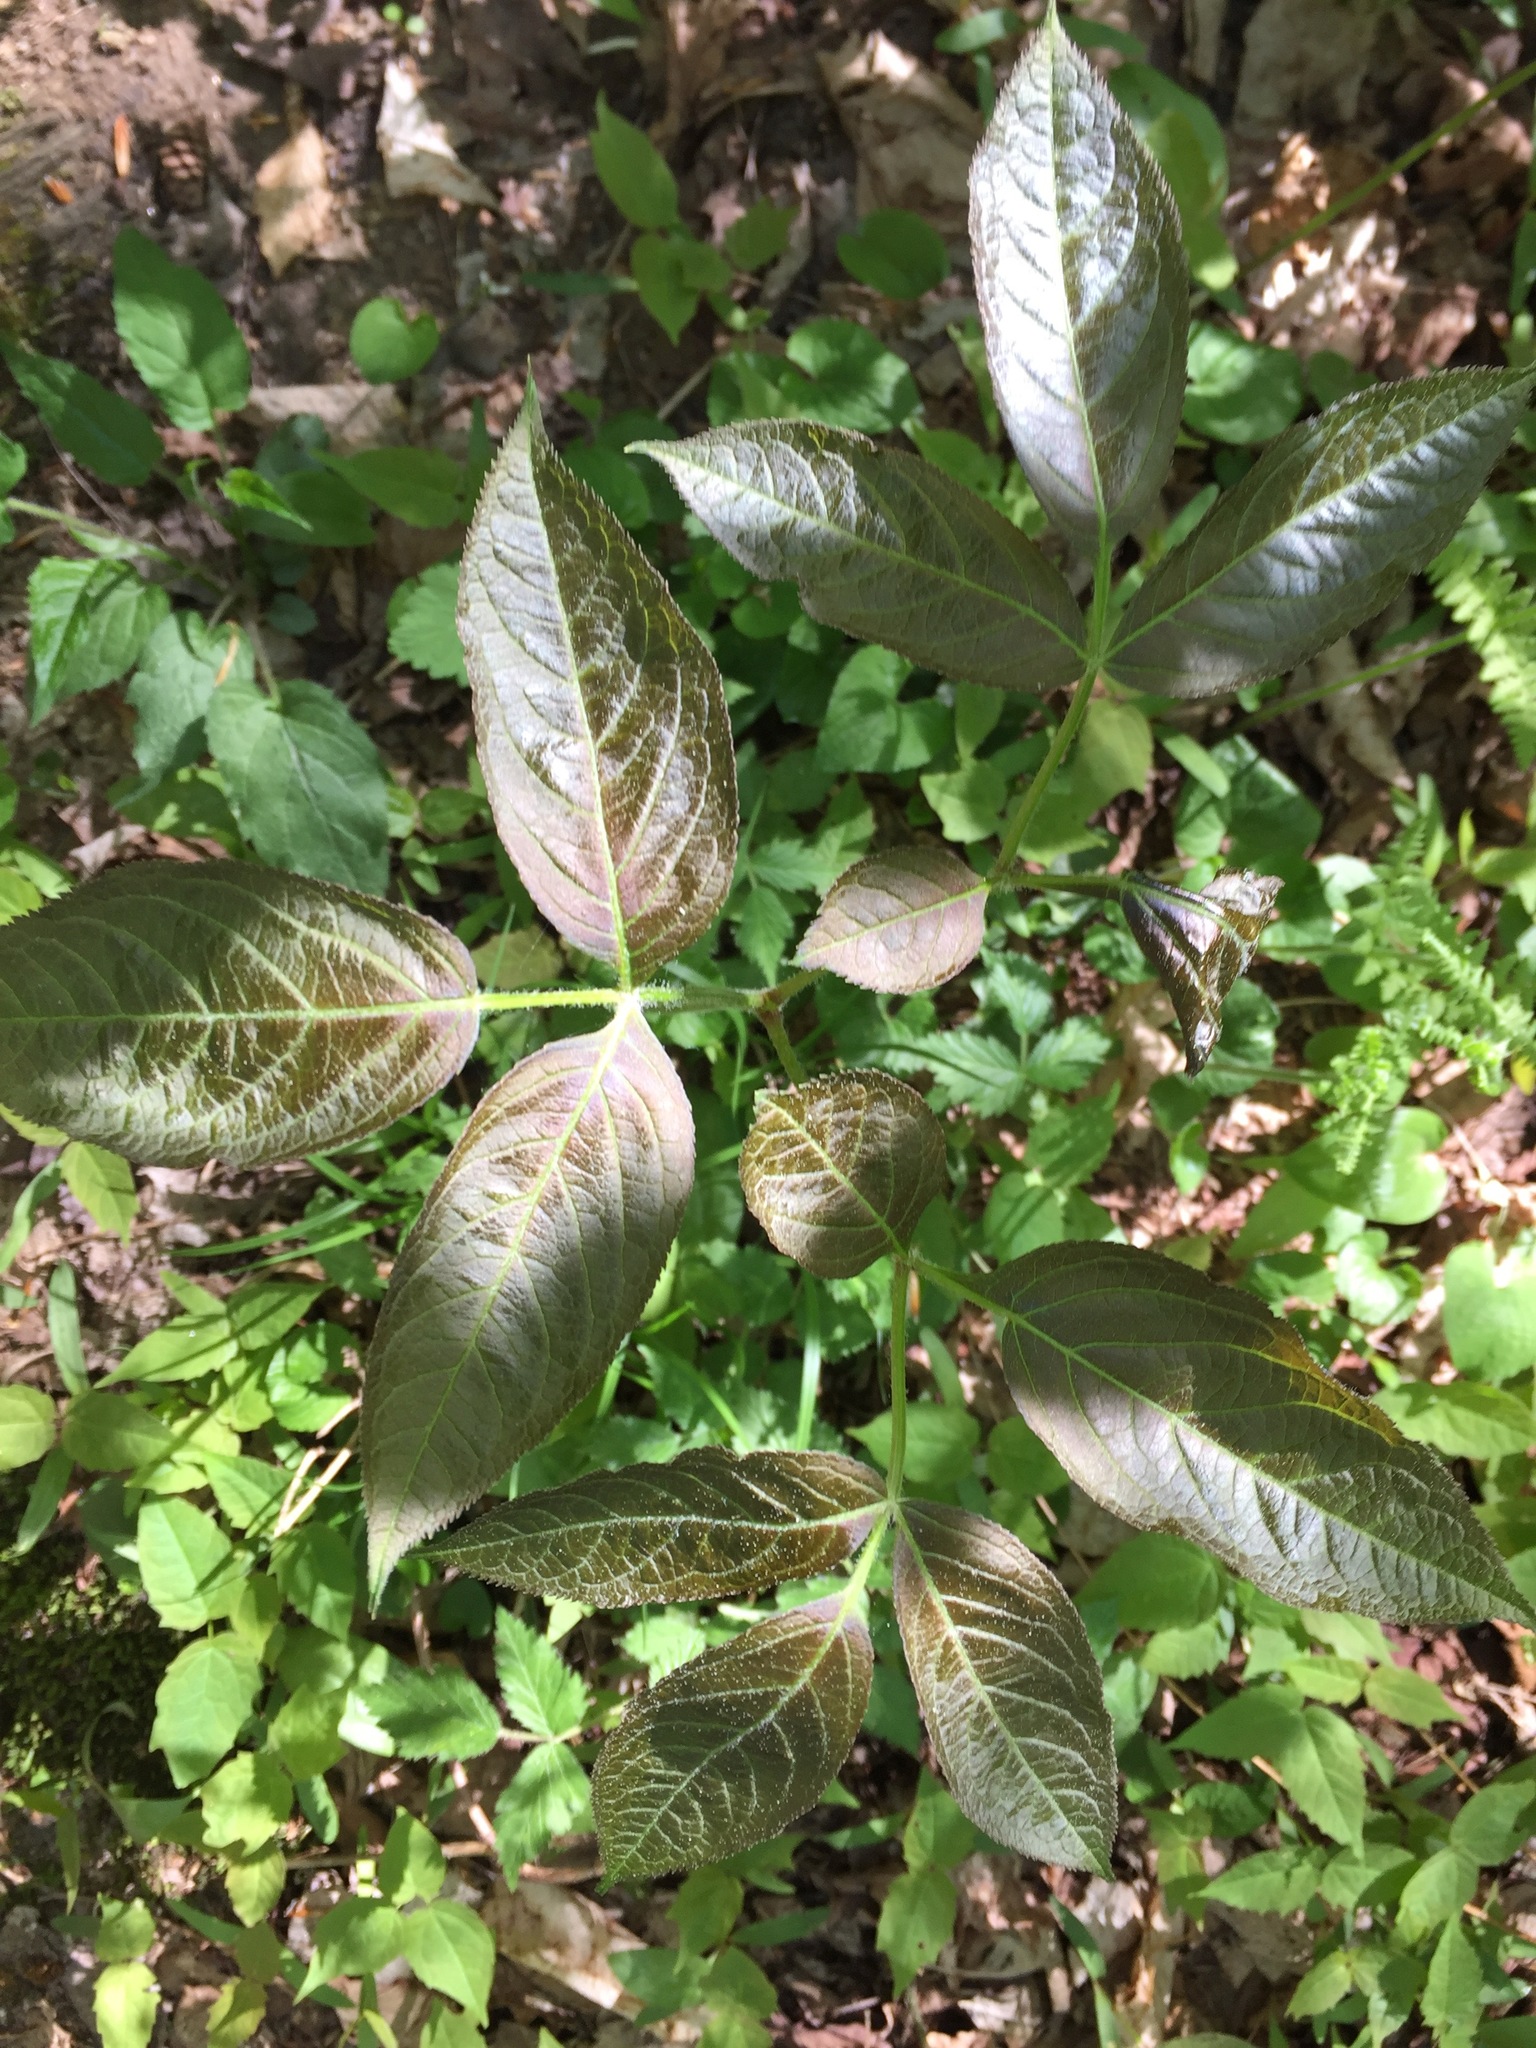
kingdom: Plantae
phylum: Tracheophyta
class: Magnoliopsida
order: Apiales
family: Araliaceae
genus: Aralia
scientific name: Aralia nudicaulis
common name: Wild sarsaparilla
